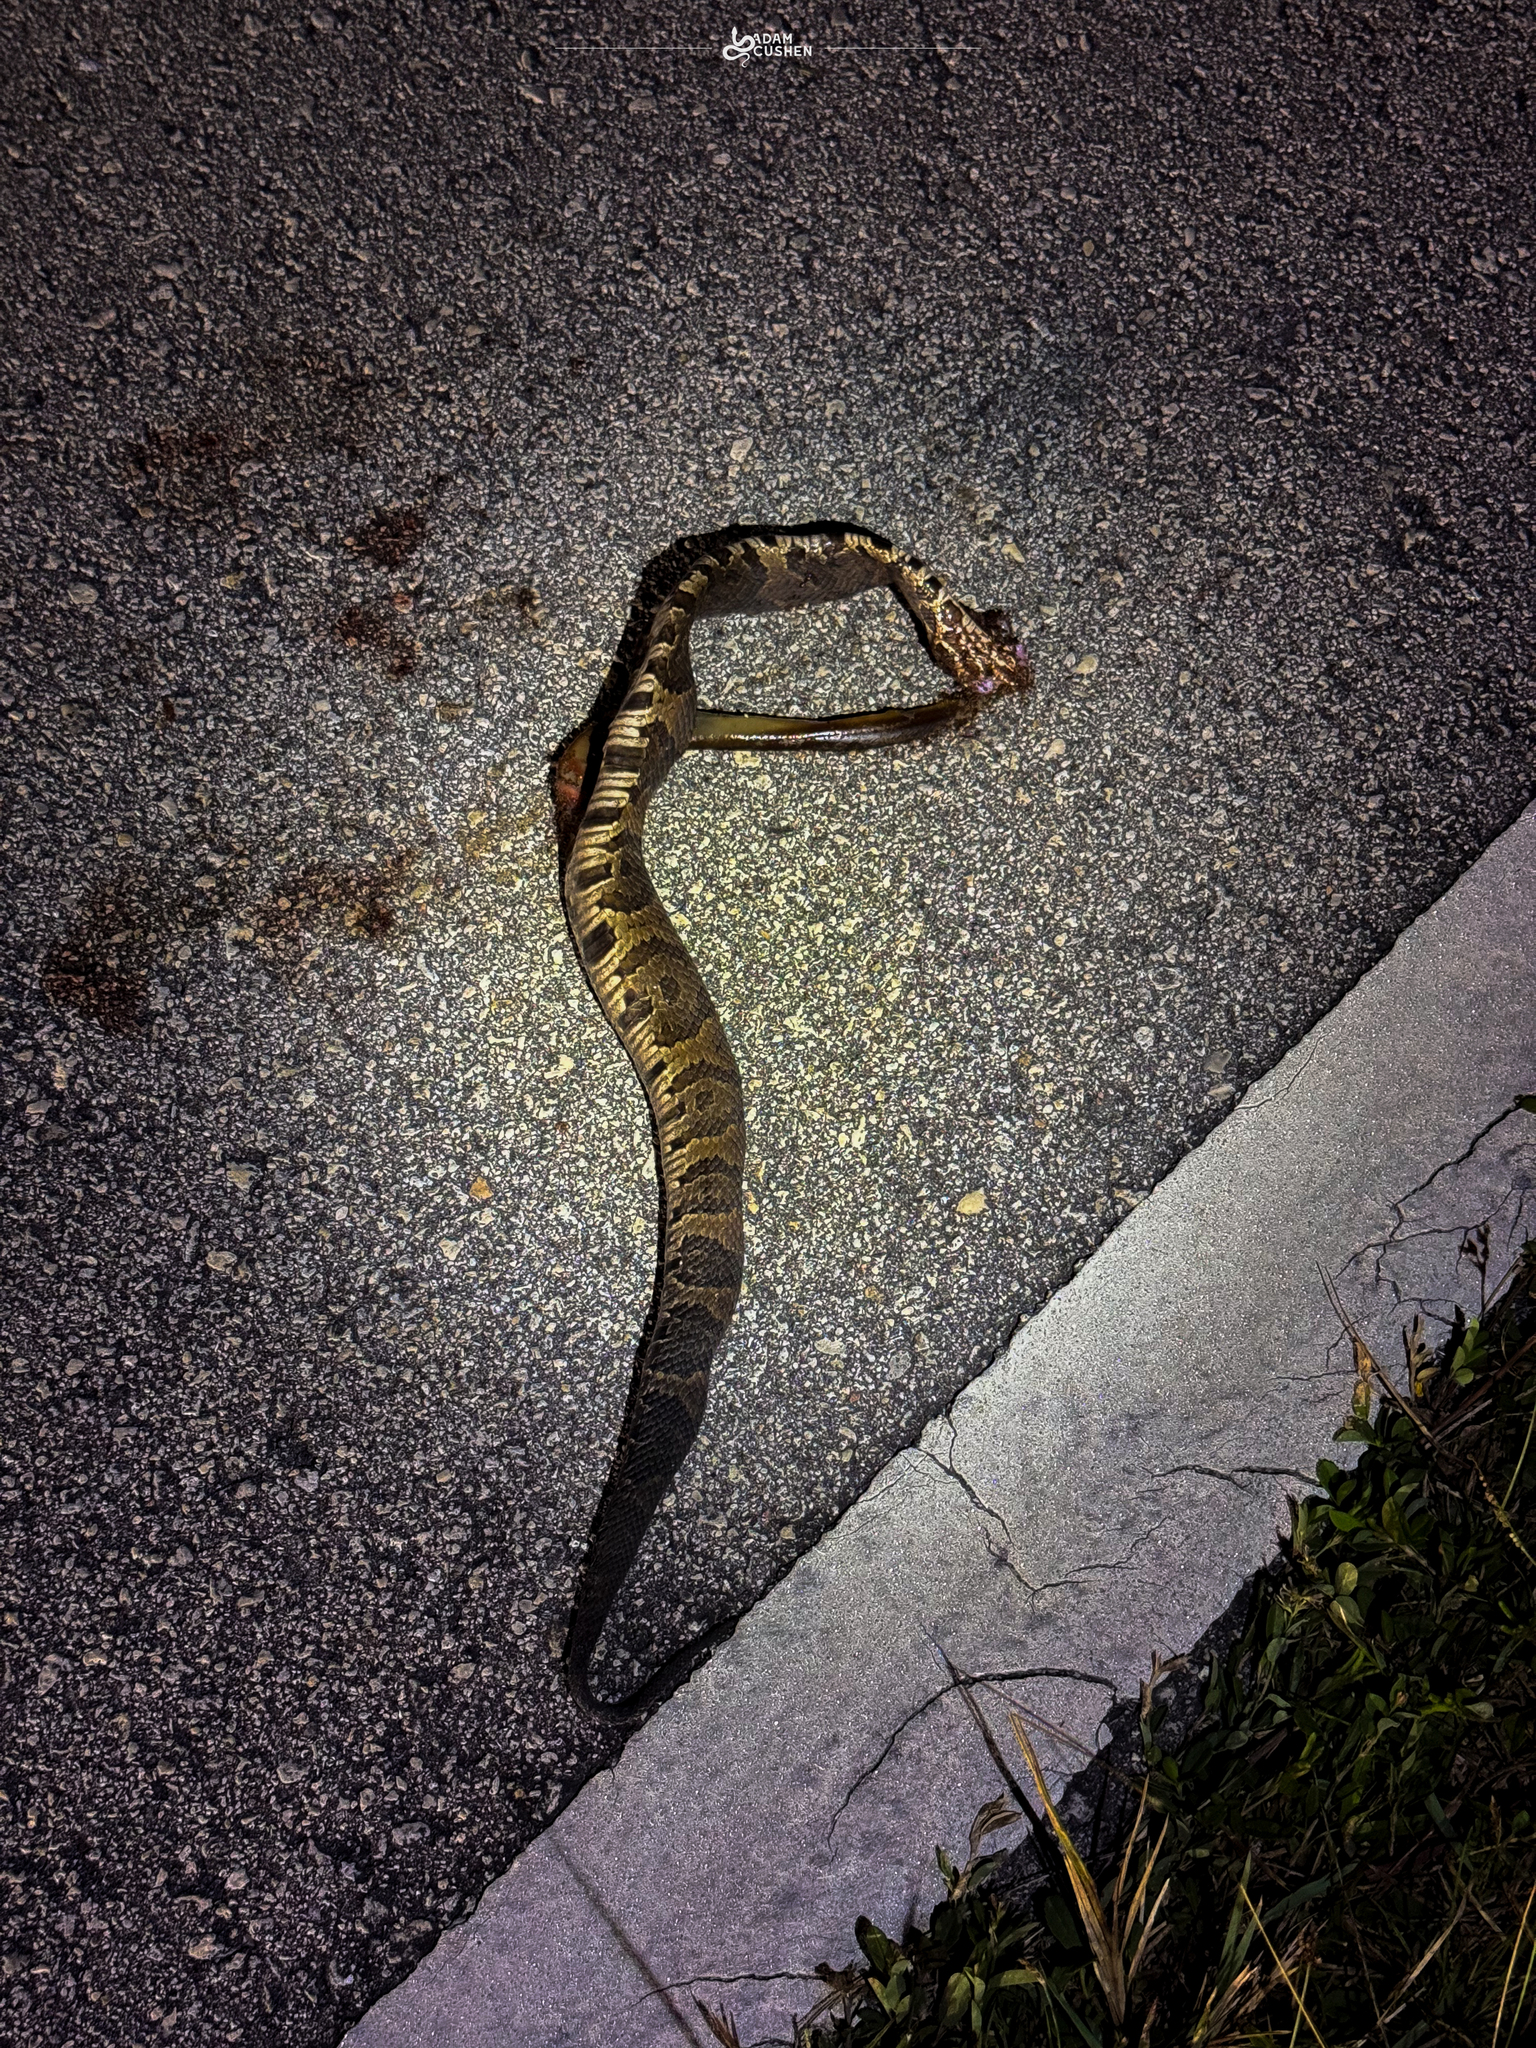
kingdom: Animalia
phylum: Chordata
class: Squamata
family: Viperidae
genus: Agkistrodon
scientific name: Agkistrodon conanti
